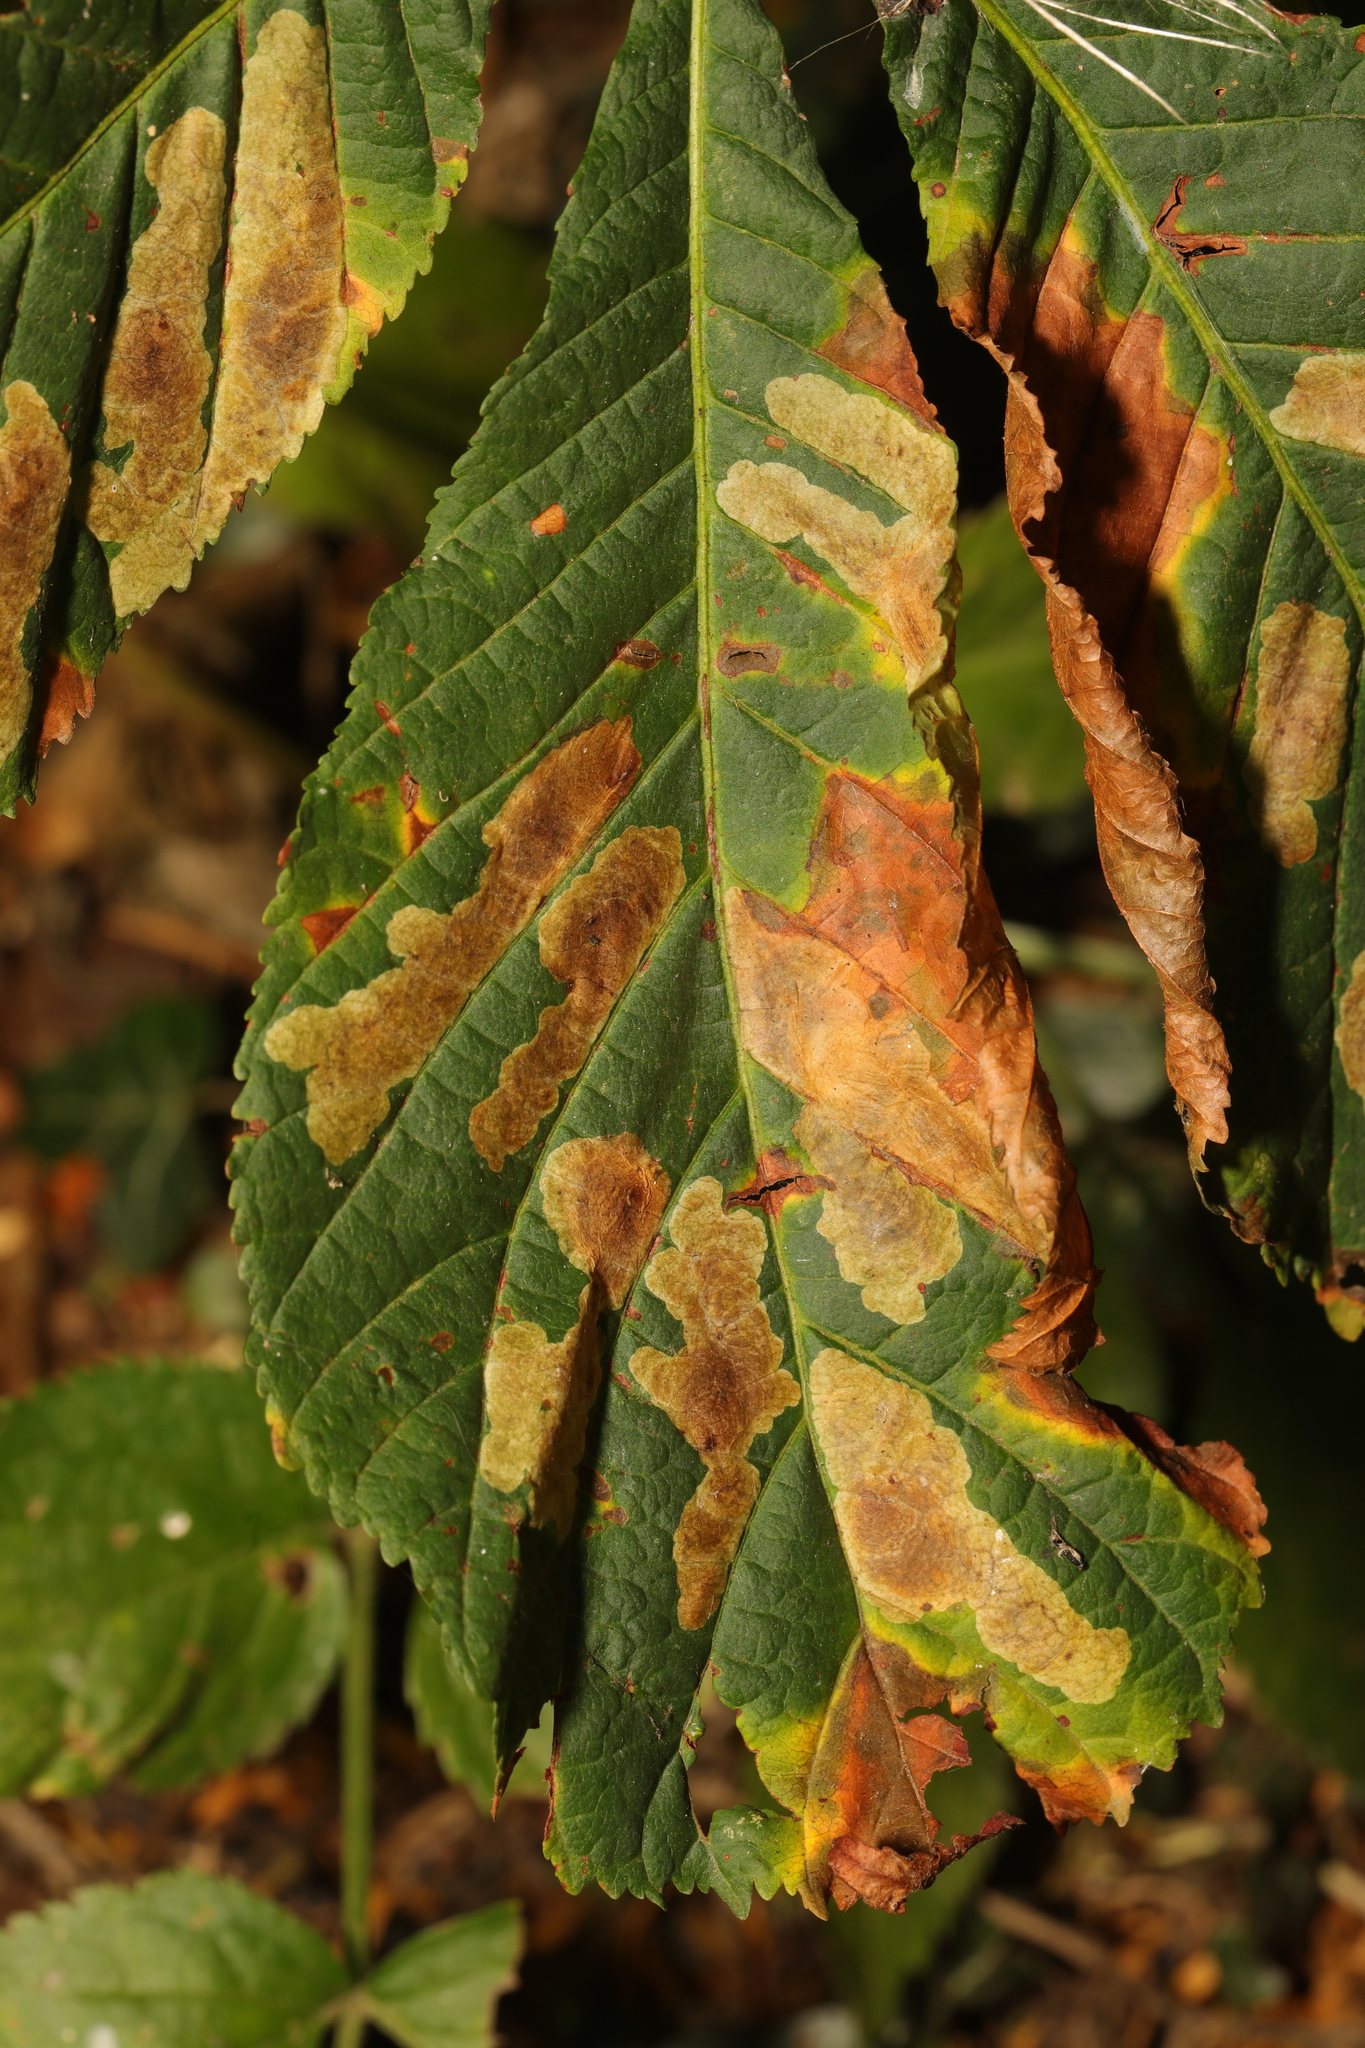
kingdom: Animalia
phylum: Arthropoda
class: Insecta
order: Lepidoptera
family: Gracillariidae
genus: Cameraria
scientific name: Cameraria ohridella
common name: Horse-chestnut leaf-miner
